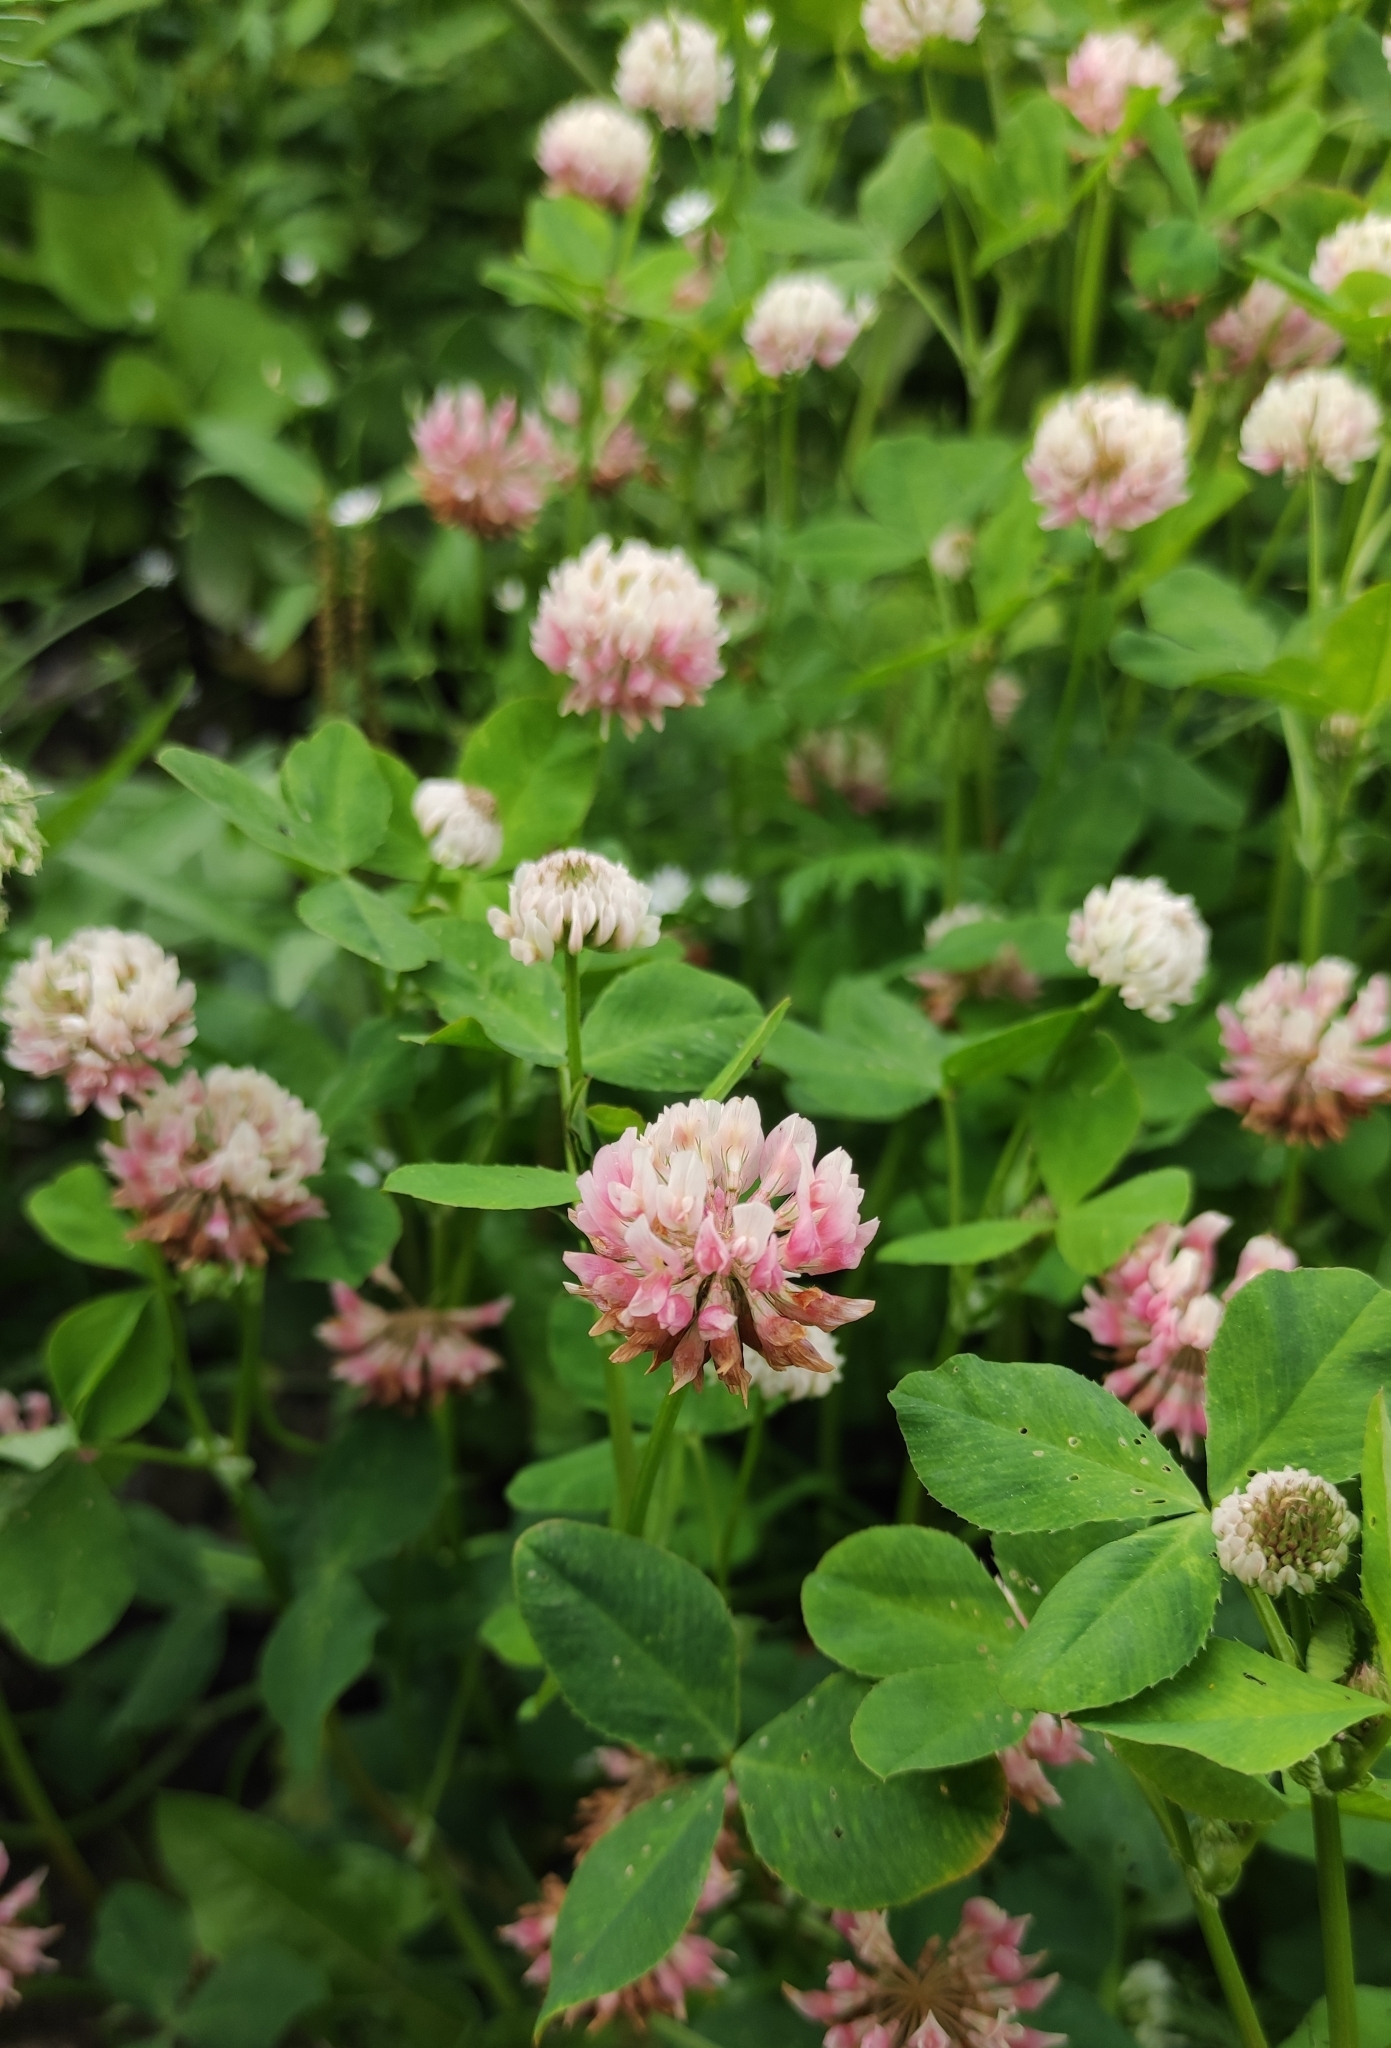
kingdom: Plantae
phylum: Tracheophyta
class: Magnoliopsida
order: Fabales
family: Fabaceae
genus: Trifolium
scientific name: Trifolium hybridum
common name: Alsike clover
